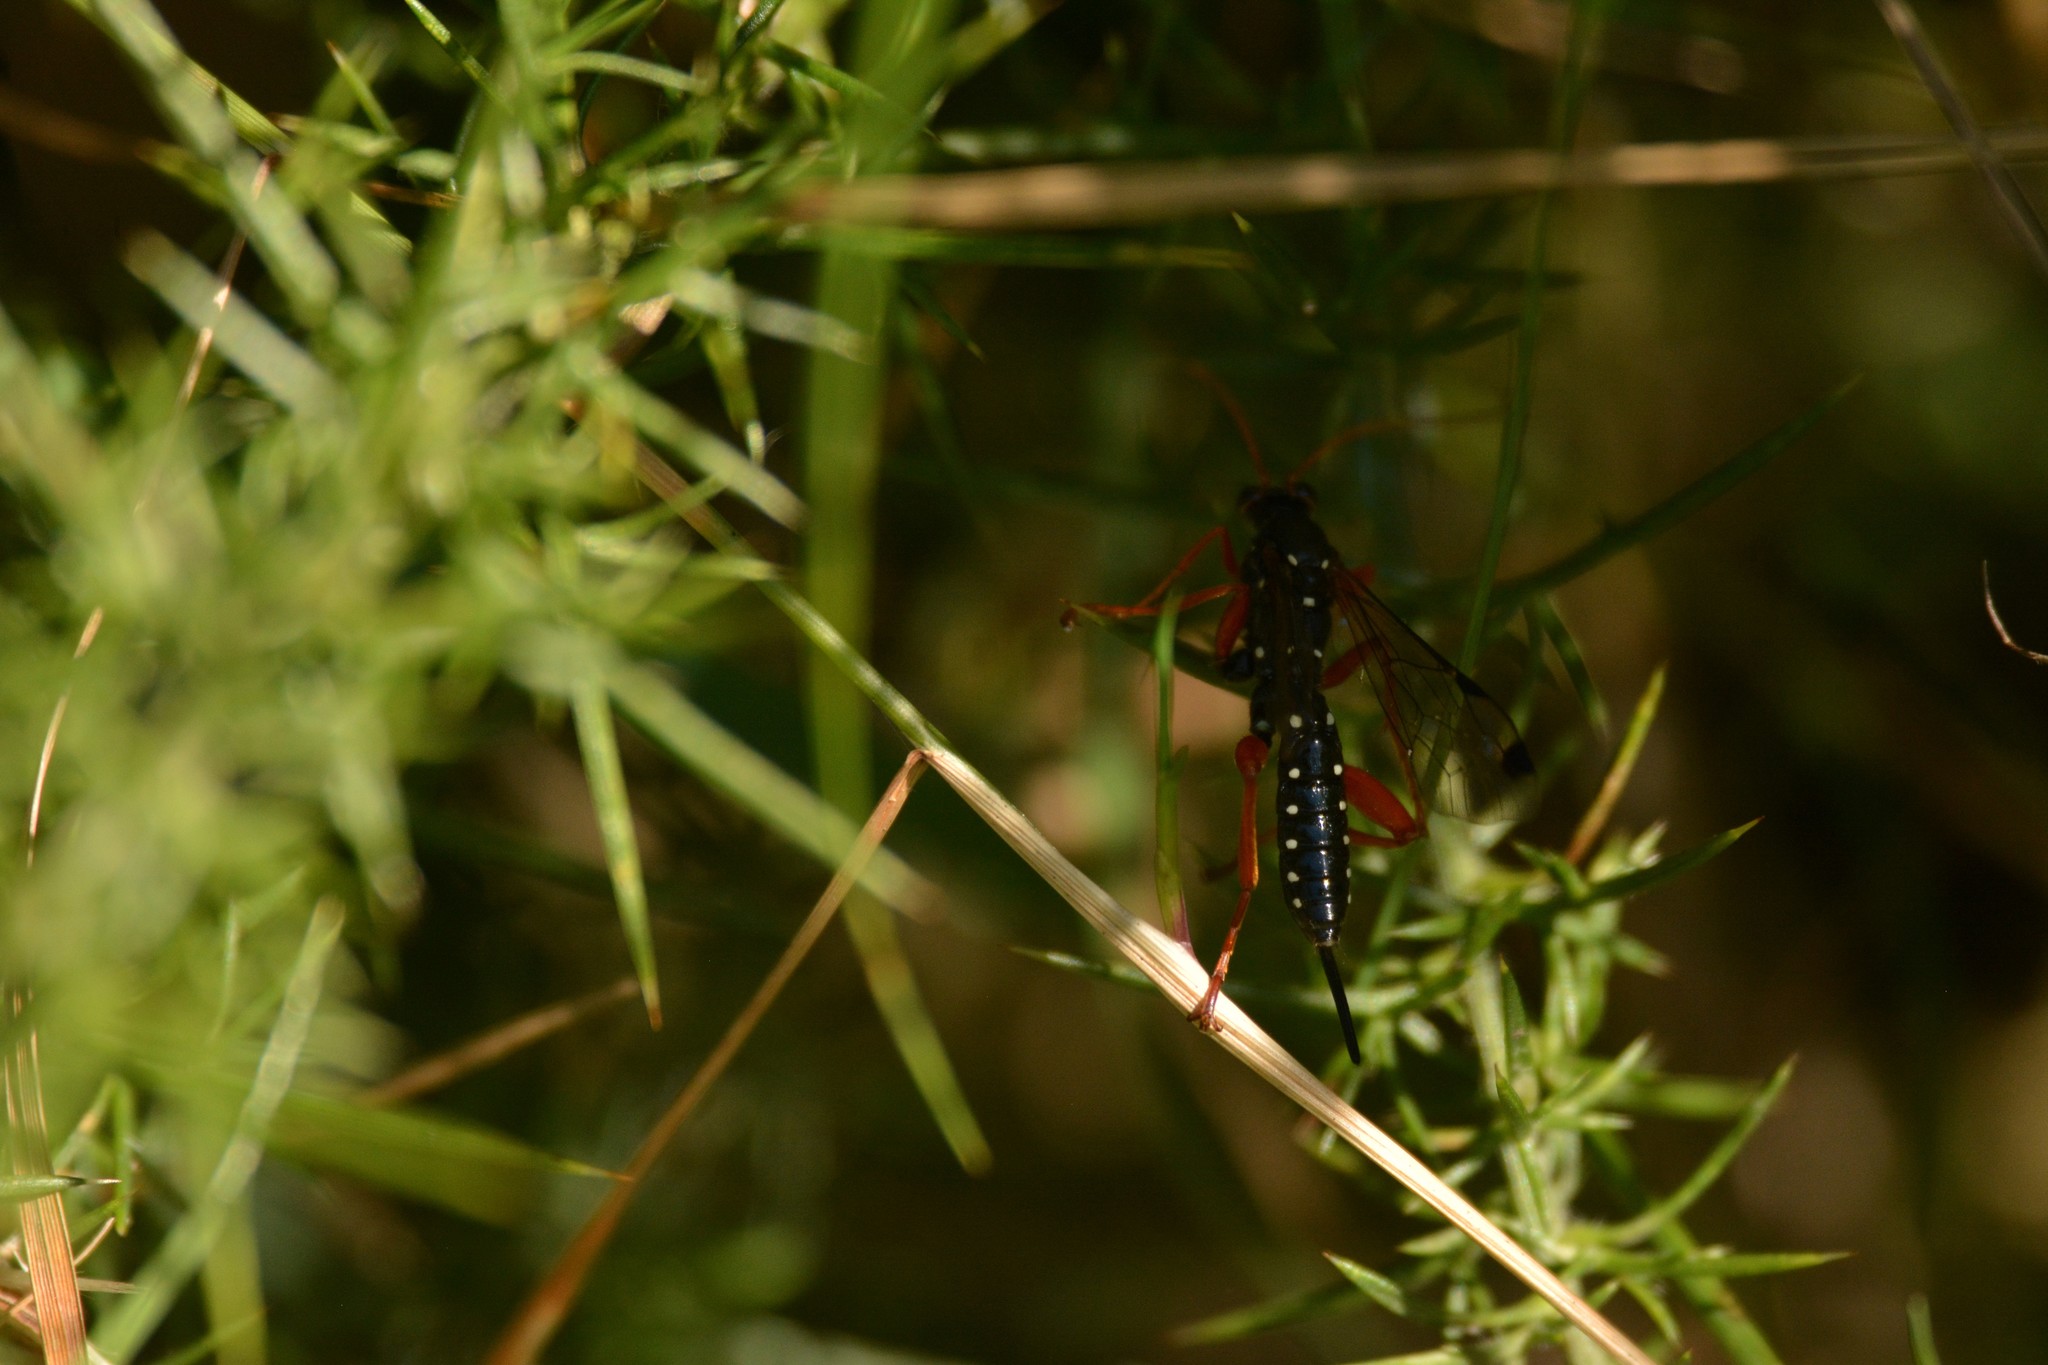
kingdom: Animalia
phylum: Arthropoda
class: Insecta
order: Hymenoptera
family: Ichneumonidae
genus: Echthromorpha
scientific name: Echthromorpha intricatoria
